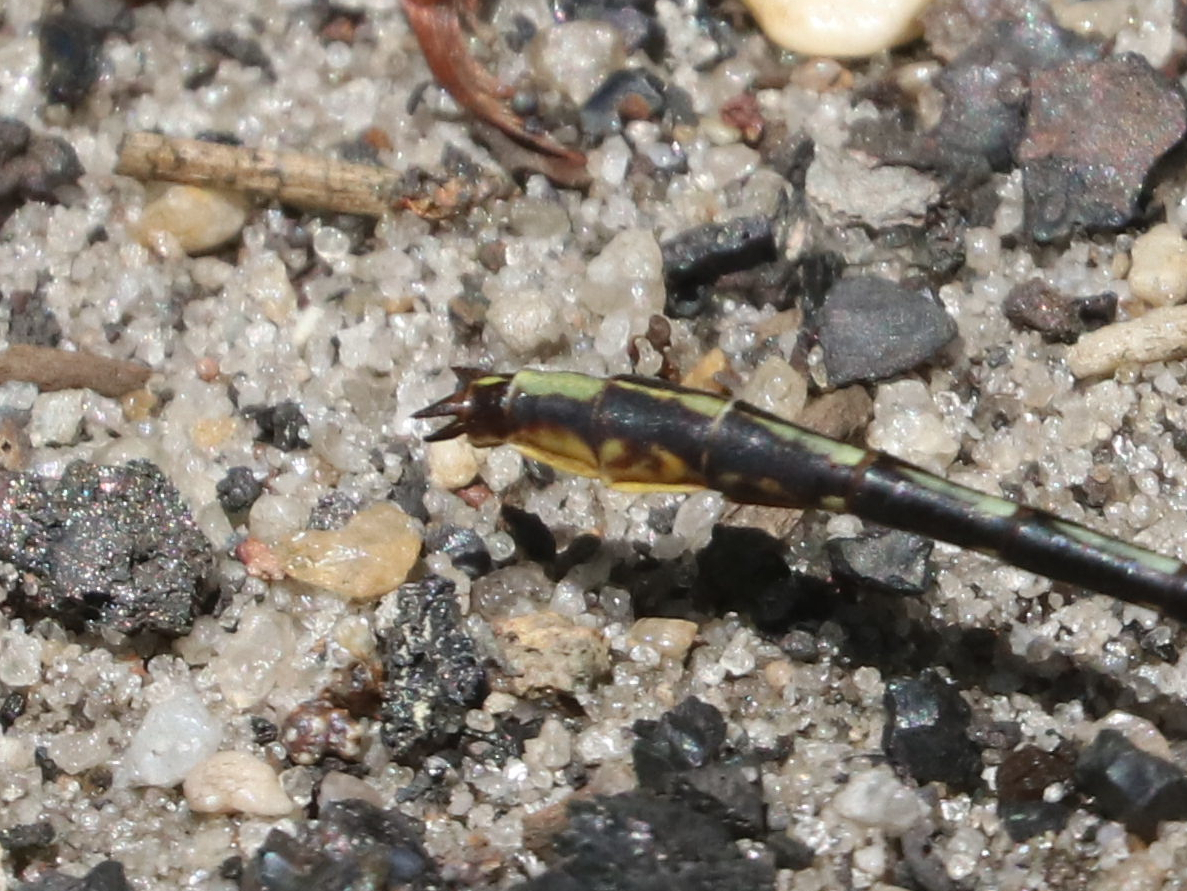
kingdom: Animalia
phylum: Arthropoda
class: Insecta
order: Odonata
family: Gomphidae
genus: Phanogomphus
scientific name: Phanogomphus exilis
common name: Lancet clubtail
